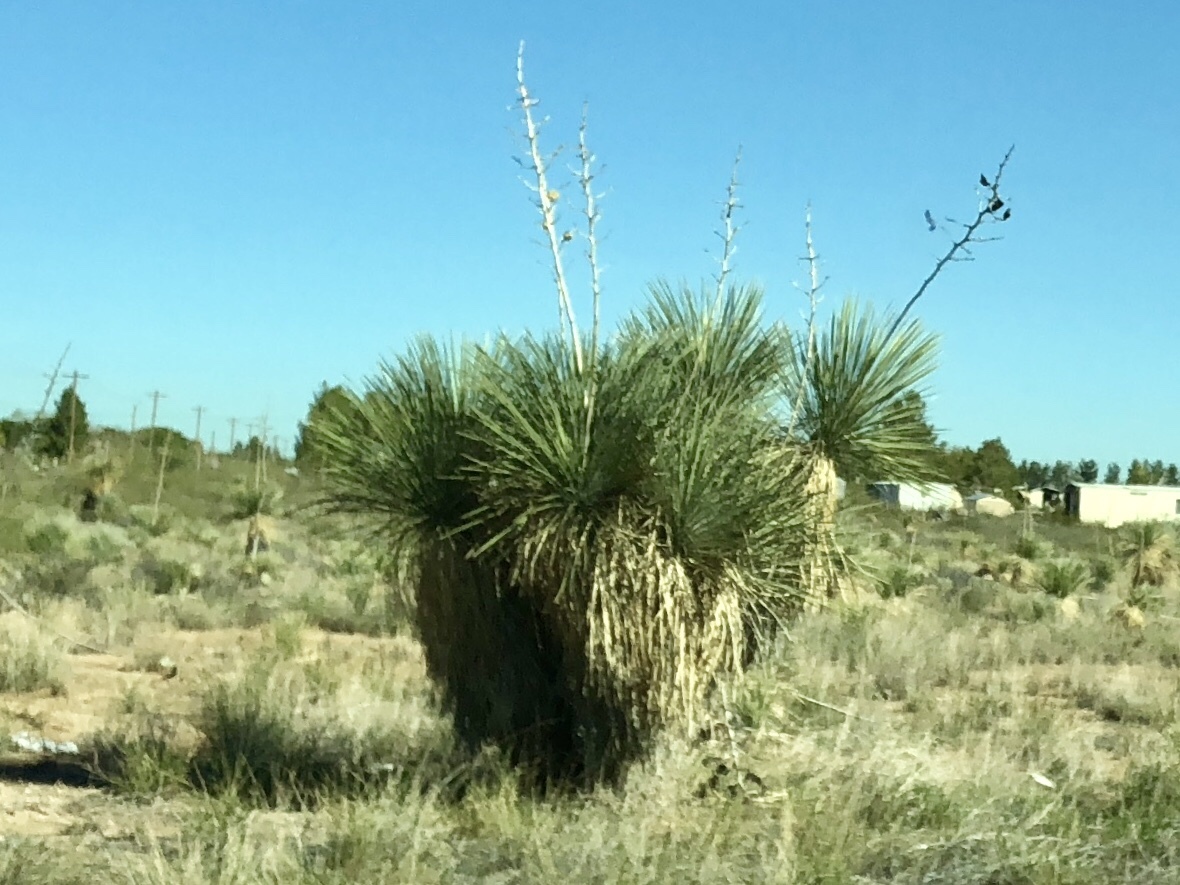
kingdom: Plantae
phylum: Tracheophyta
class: Liliopsida
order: Asparagales
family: Asparagaceae
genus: Yucca
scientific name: Yucca elata
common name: Palmella
